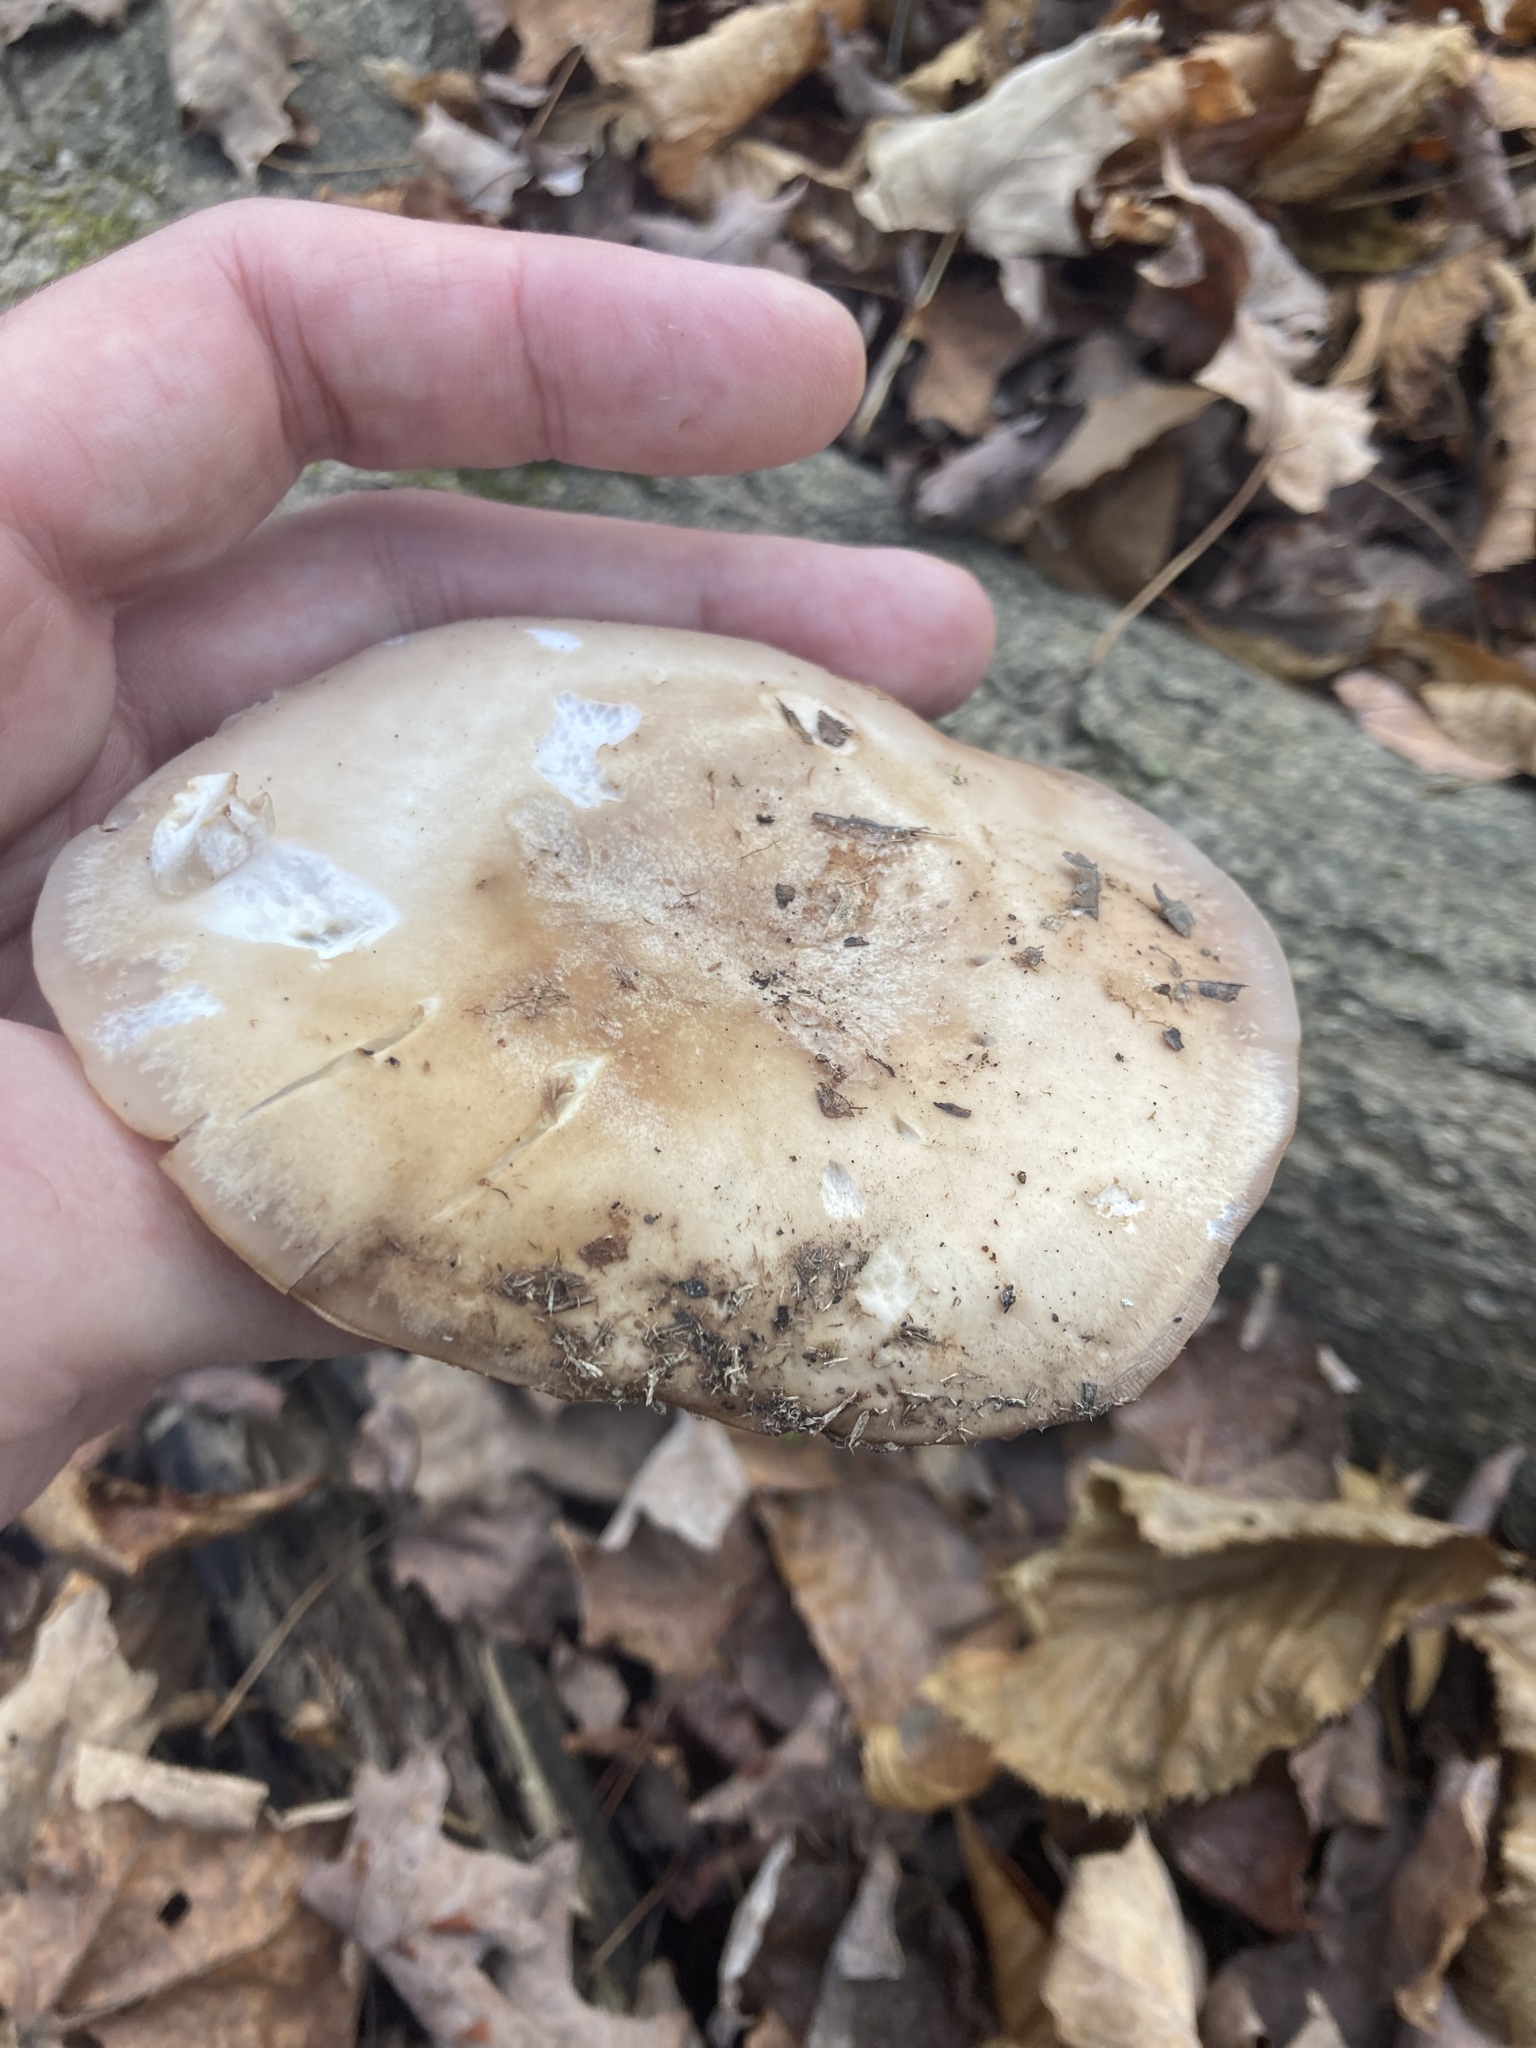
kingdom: Fungi
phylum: Basidiomycota
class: Agaricomycetes
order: Agaricales
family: Tricholomataceae
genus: Collybia
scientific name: Collybia
